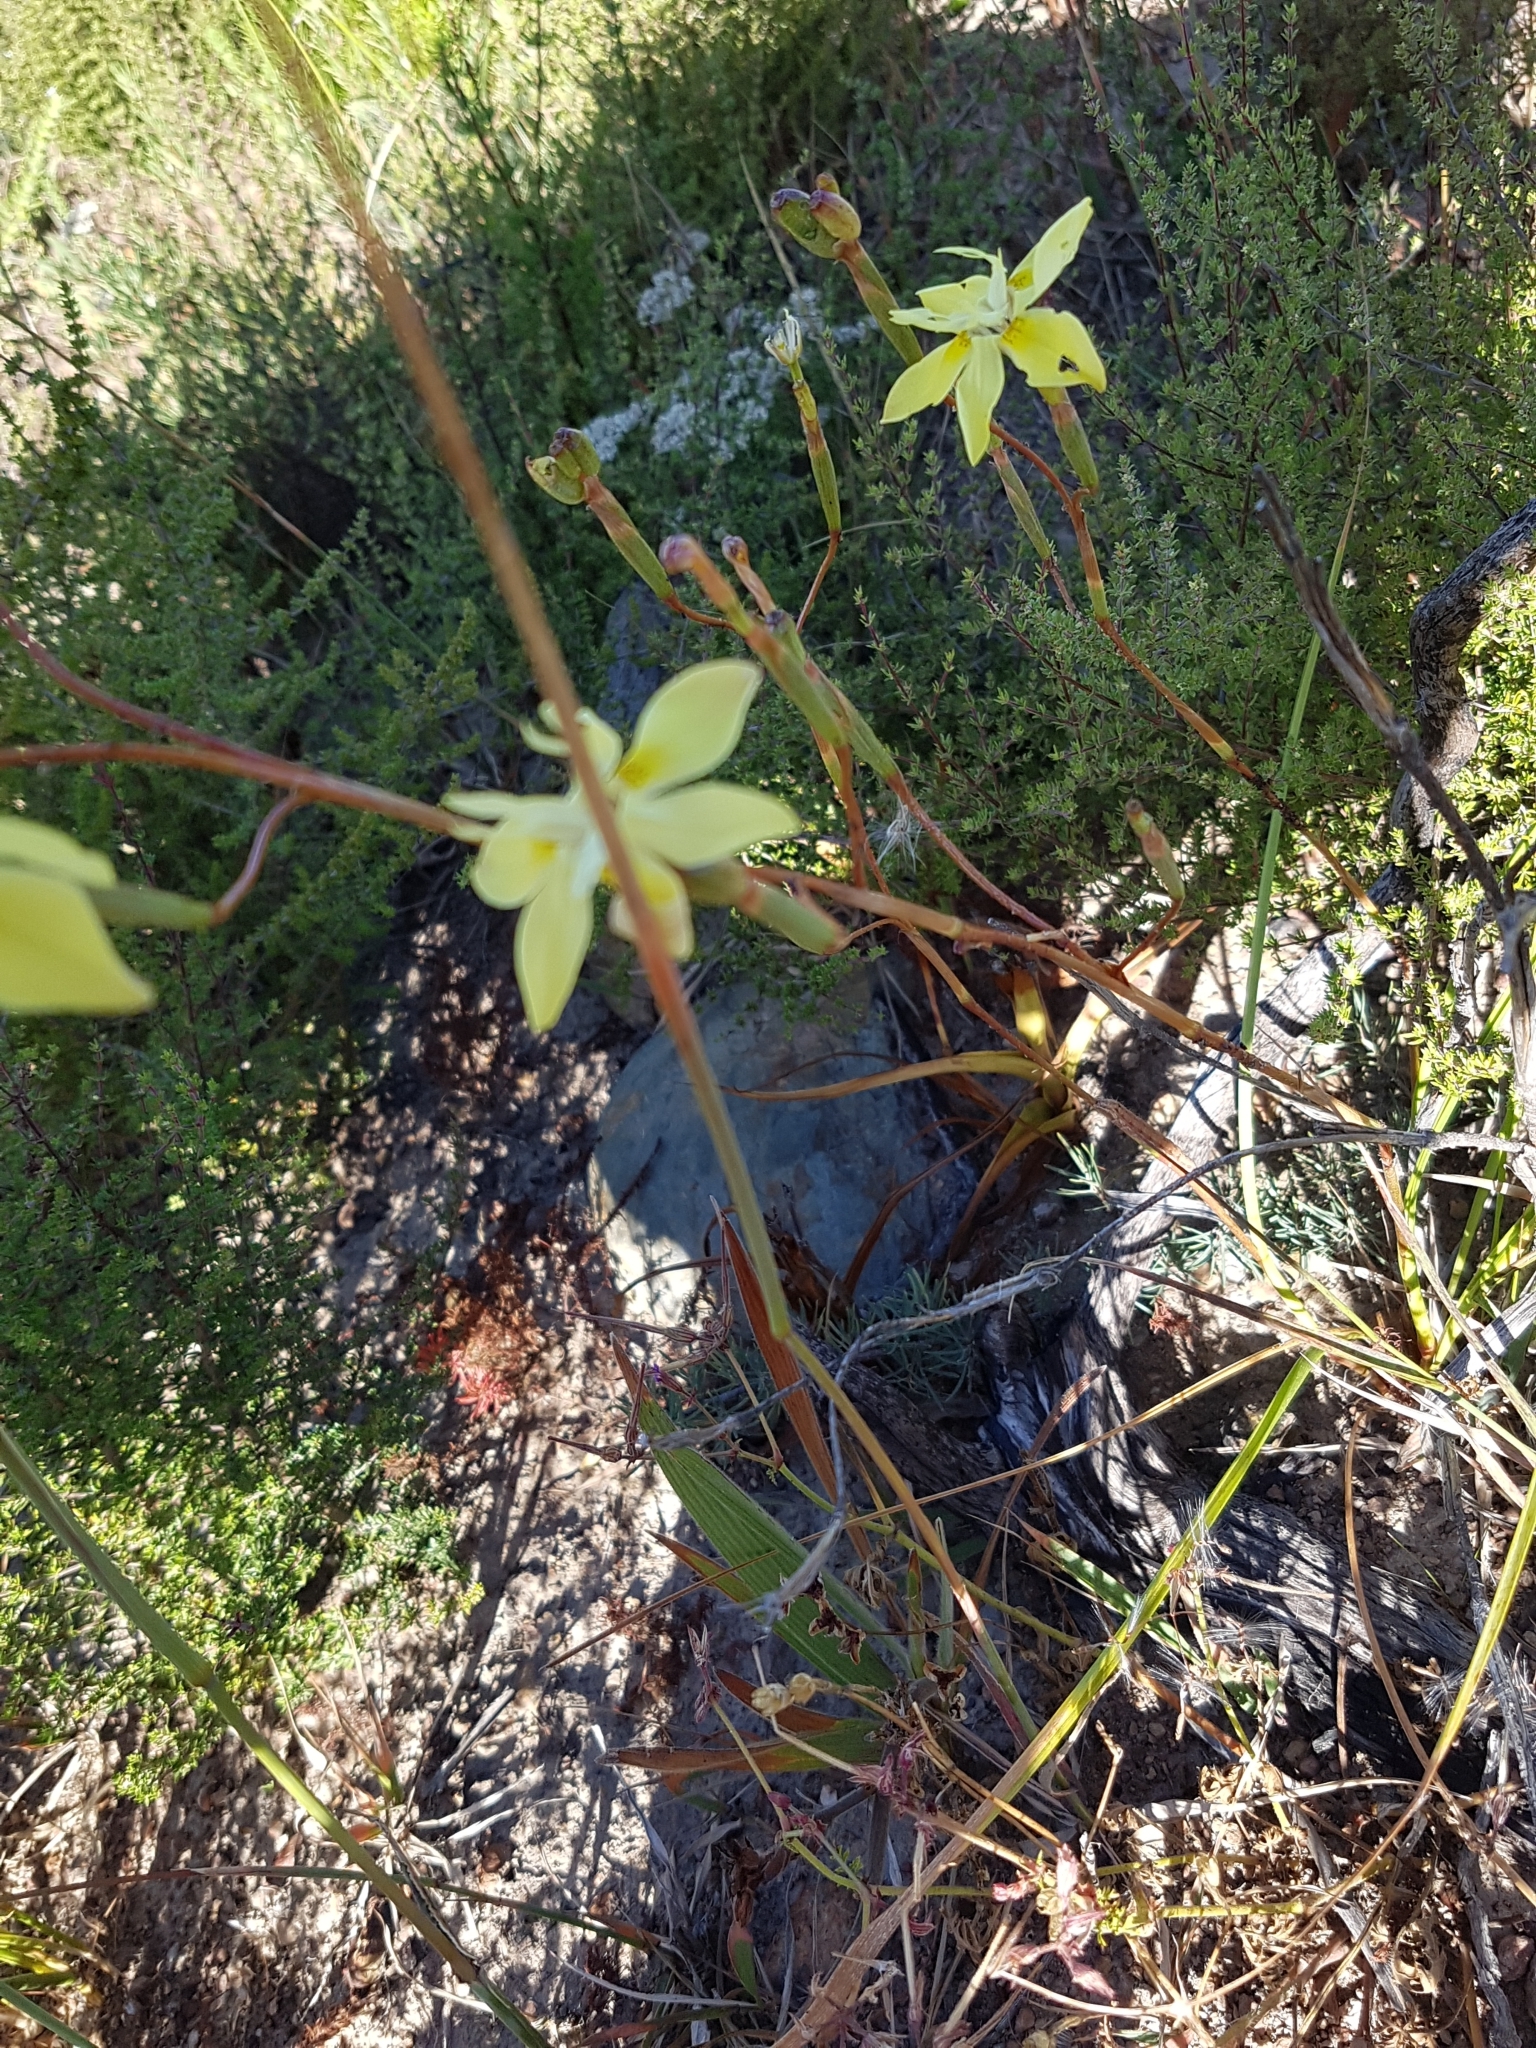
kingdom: Animalia
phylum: Arthropoda
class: Insecta
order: Lepidoptera
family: Noctuidae
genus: Helicoverpa
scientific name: Helicoverpa armigera
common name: Cotton bollworm
